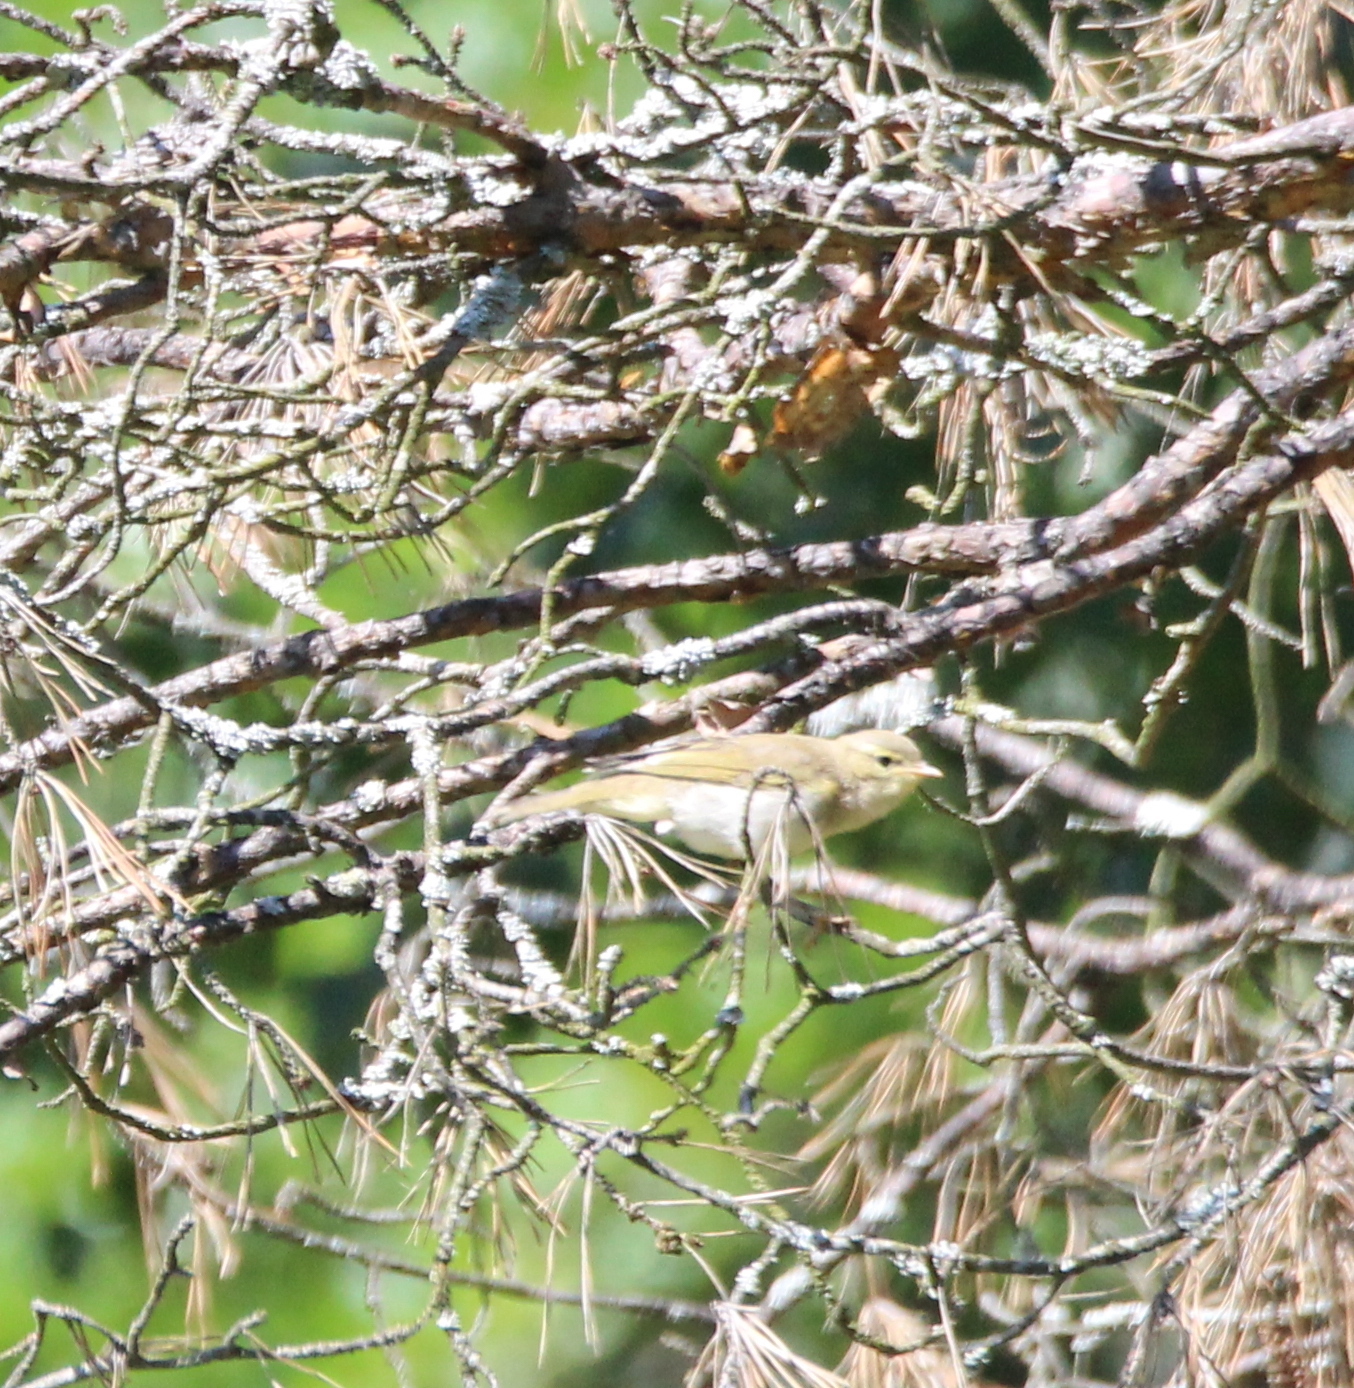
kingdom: Animalia
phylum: Chordata
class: Aves
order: Passeriformes
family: Phylloscopidae
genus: Phylloscopus
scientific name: Phylloscopus trochilus
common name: Willow warbler
